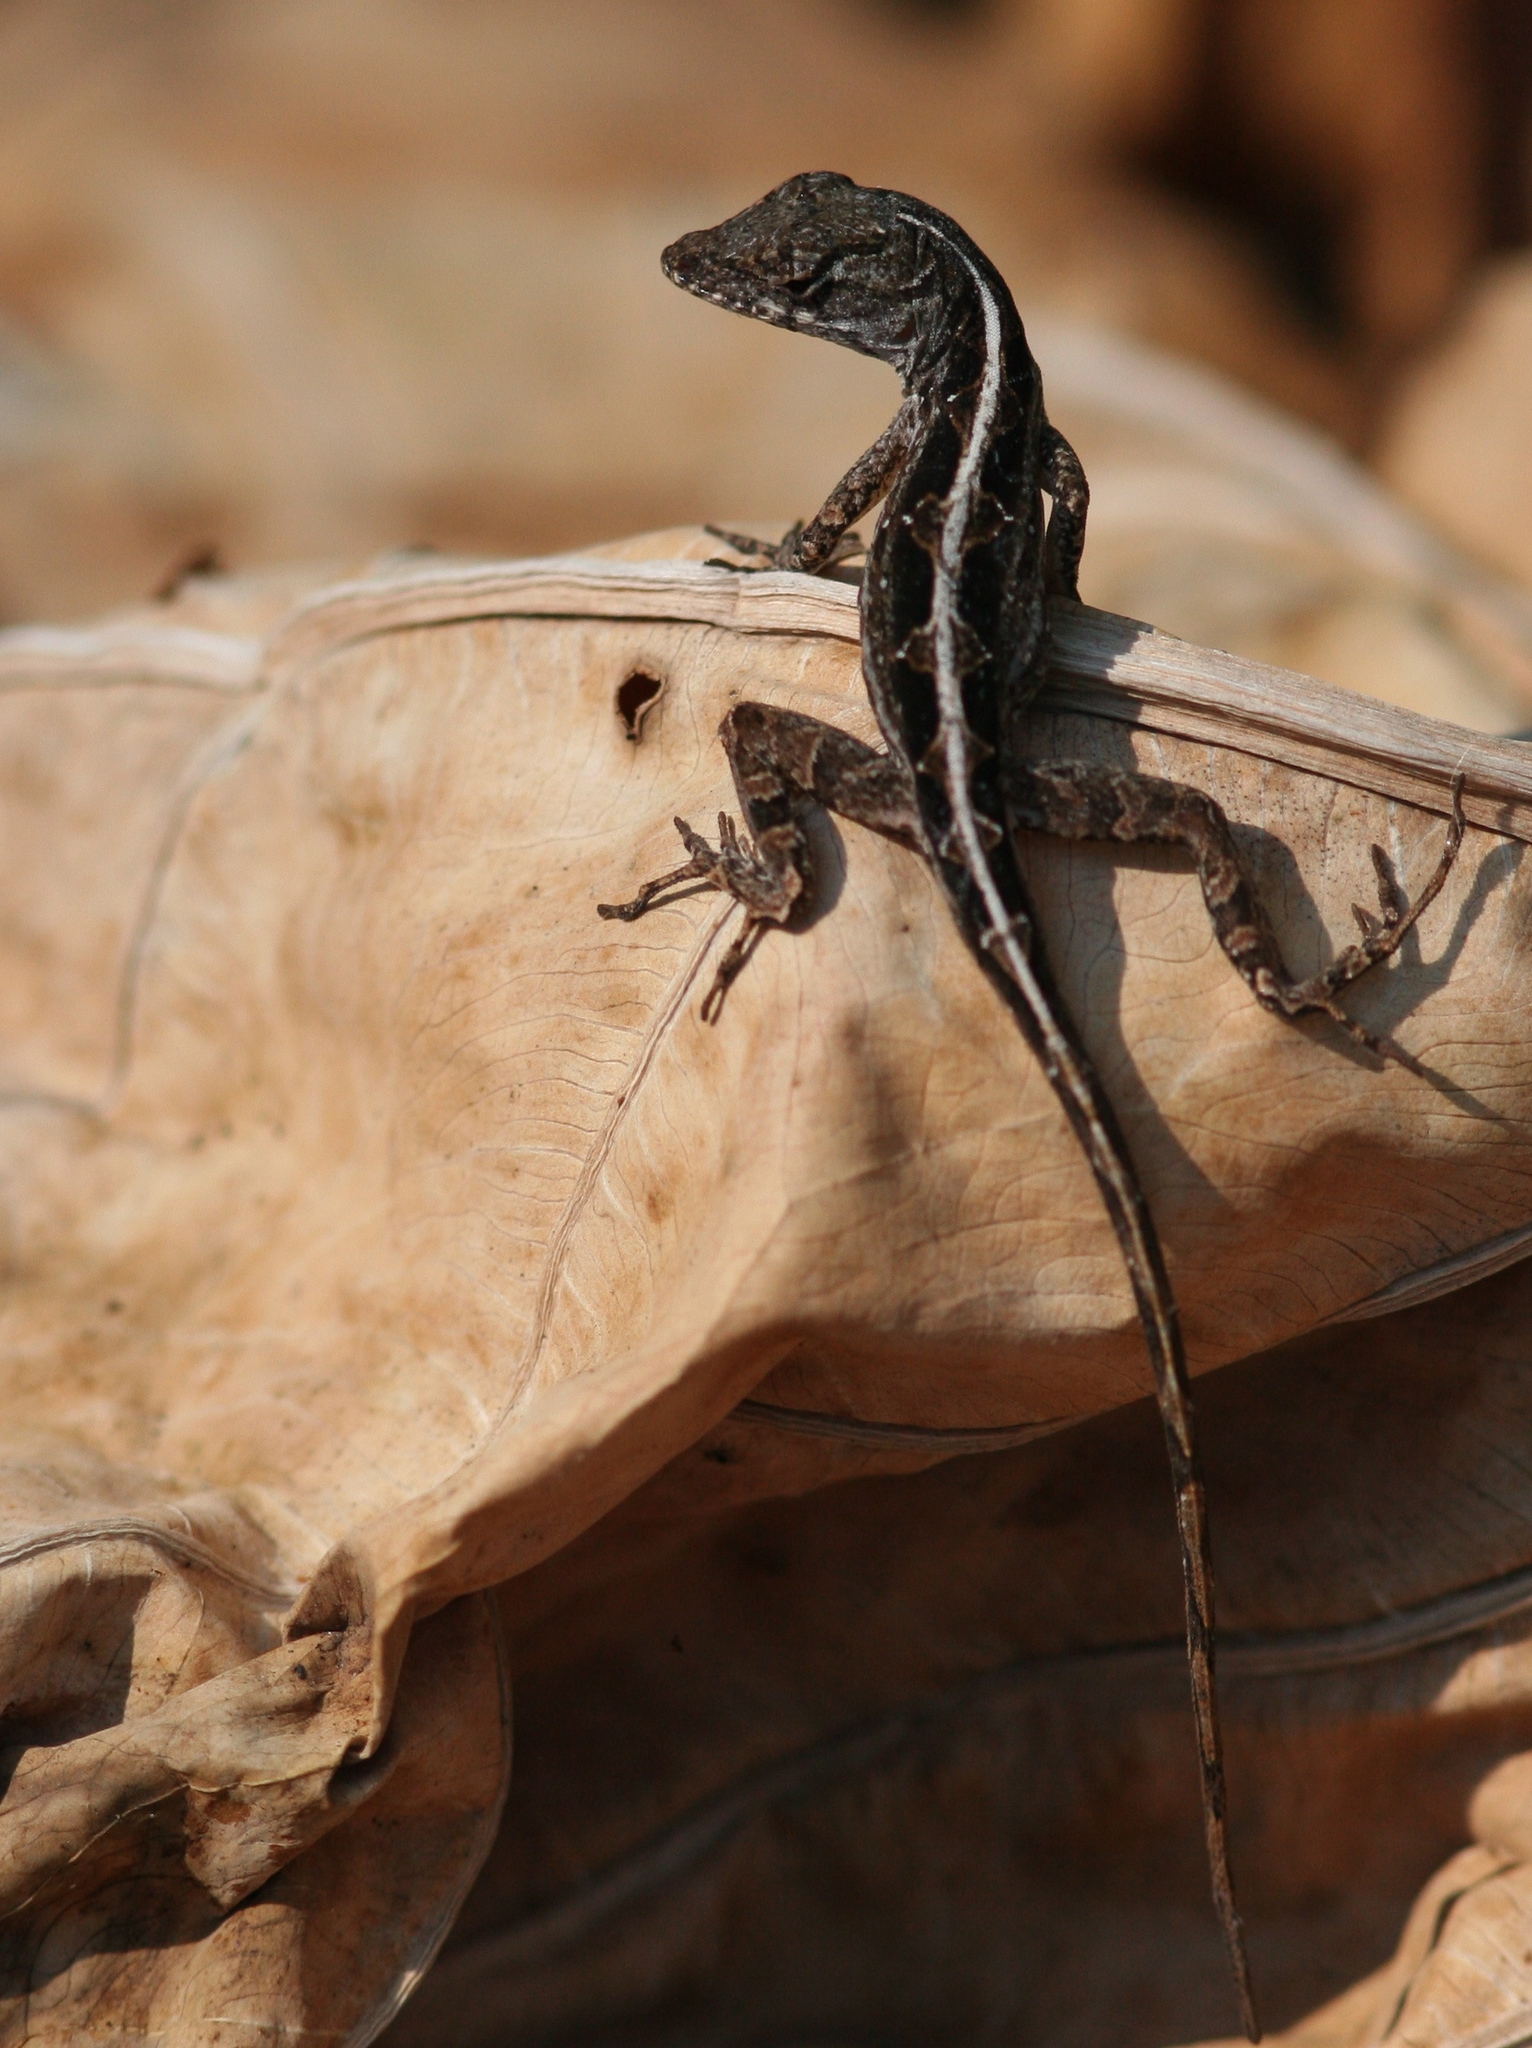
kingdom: Animalia
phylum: Chordata
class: Squamata
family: Dactyloidae
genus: Anolis
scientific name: Anolis sagrei
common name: Brown anole
